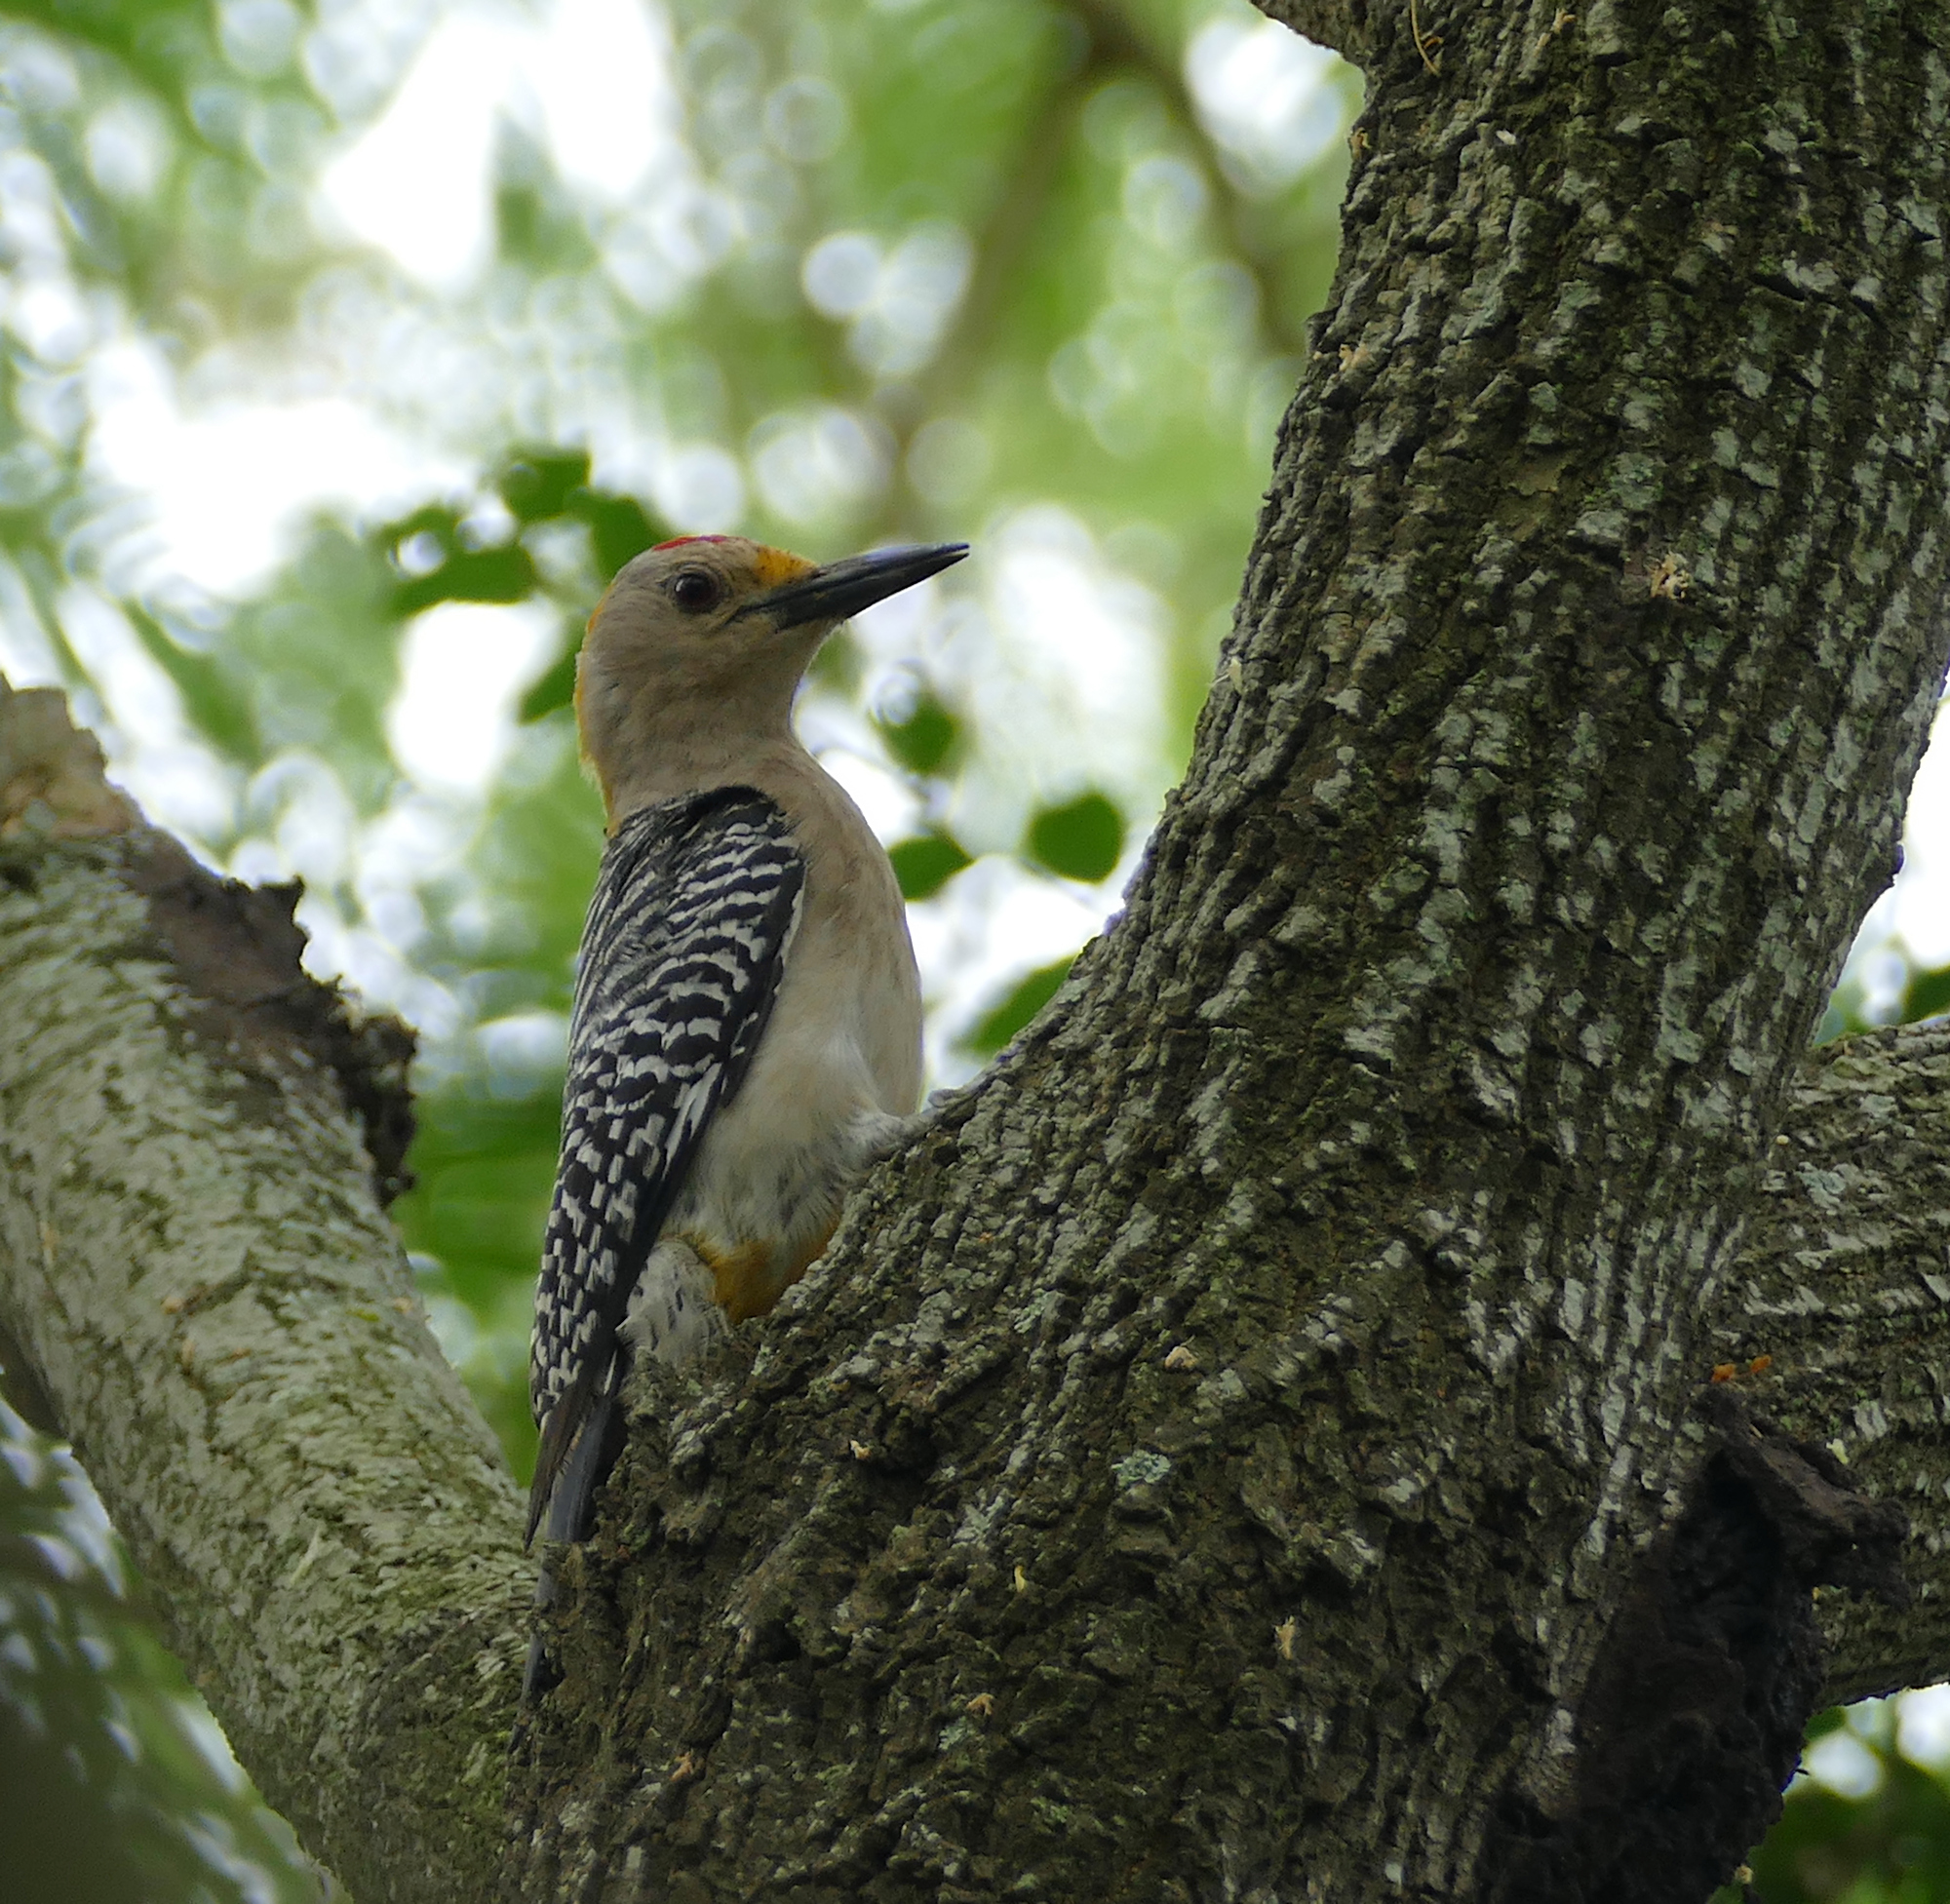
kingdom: Animalia
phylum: Chordata
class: Aves
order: Piciformes
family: Picidae
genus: Melanerpes
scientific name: Melanerpes aurifrons
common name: Golden-fronted woodpecker
